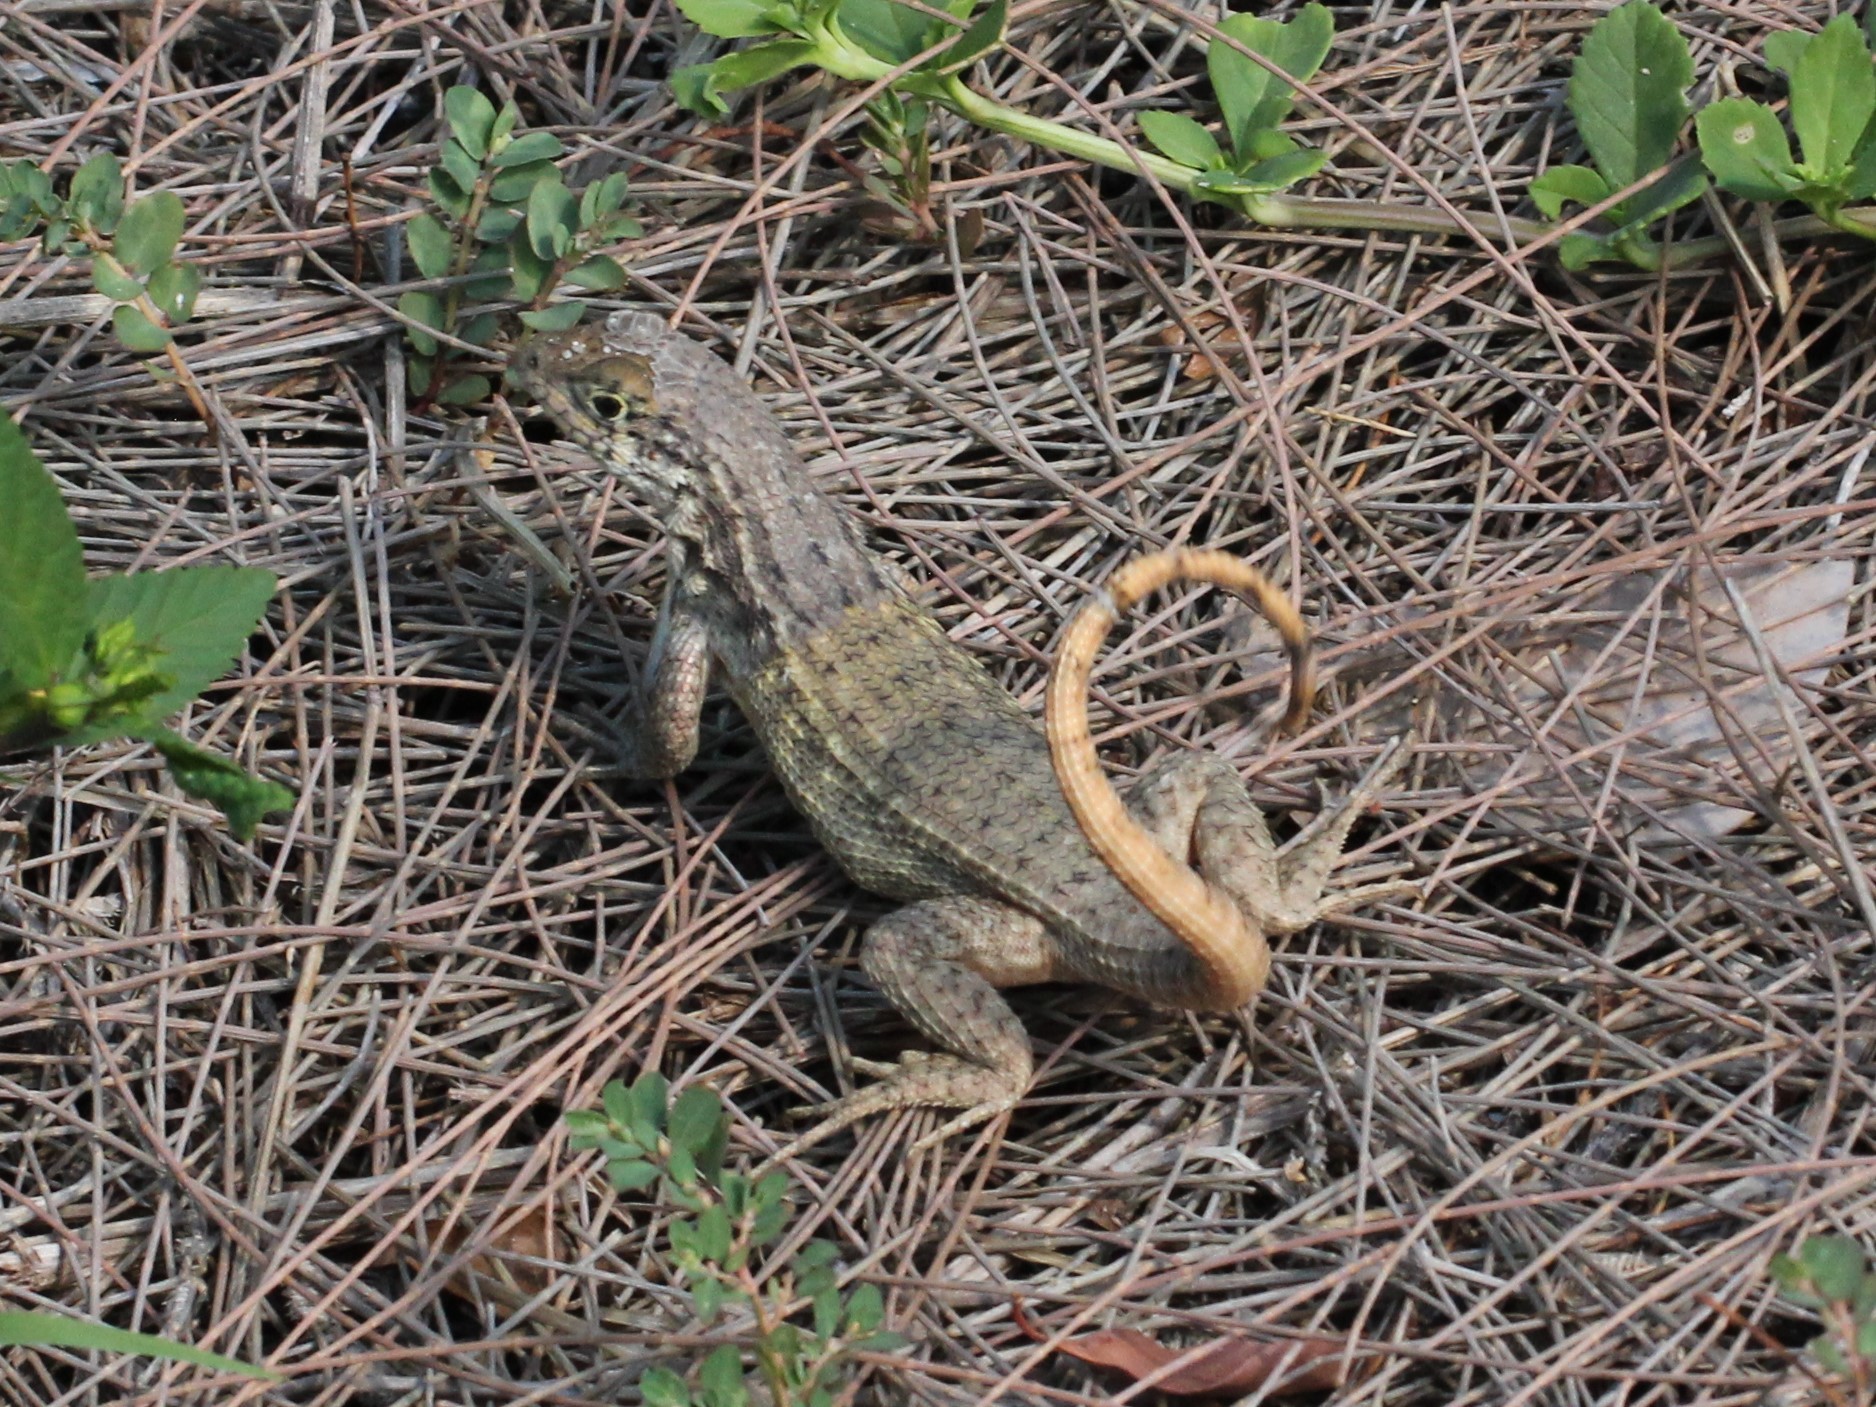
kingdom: Animalia
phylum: Chordata
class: Squamata
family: Leiocephalidae
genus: Leiocephalus
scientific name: Leiocephalus carinatus
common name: Northern curly-tailed lizard
